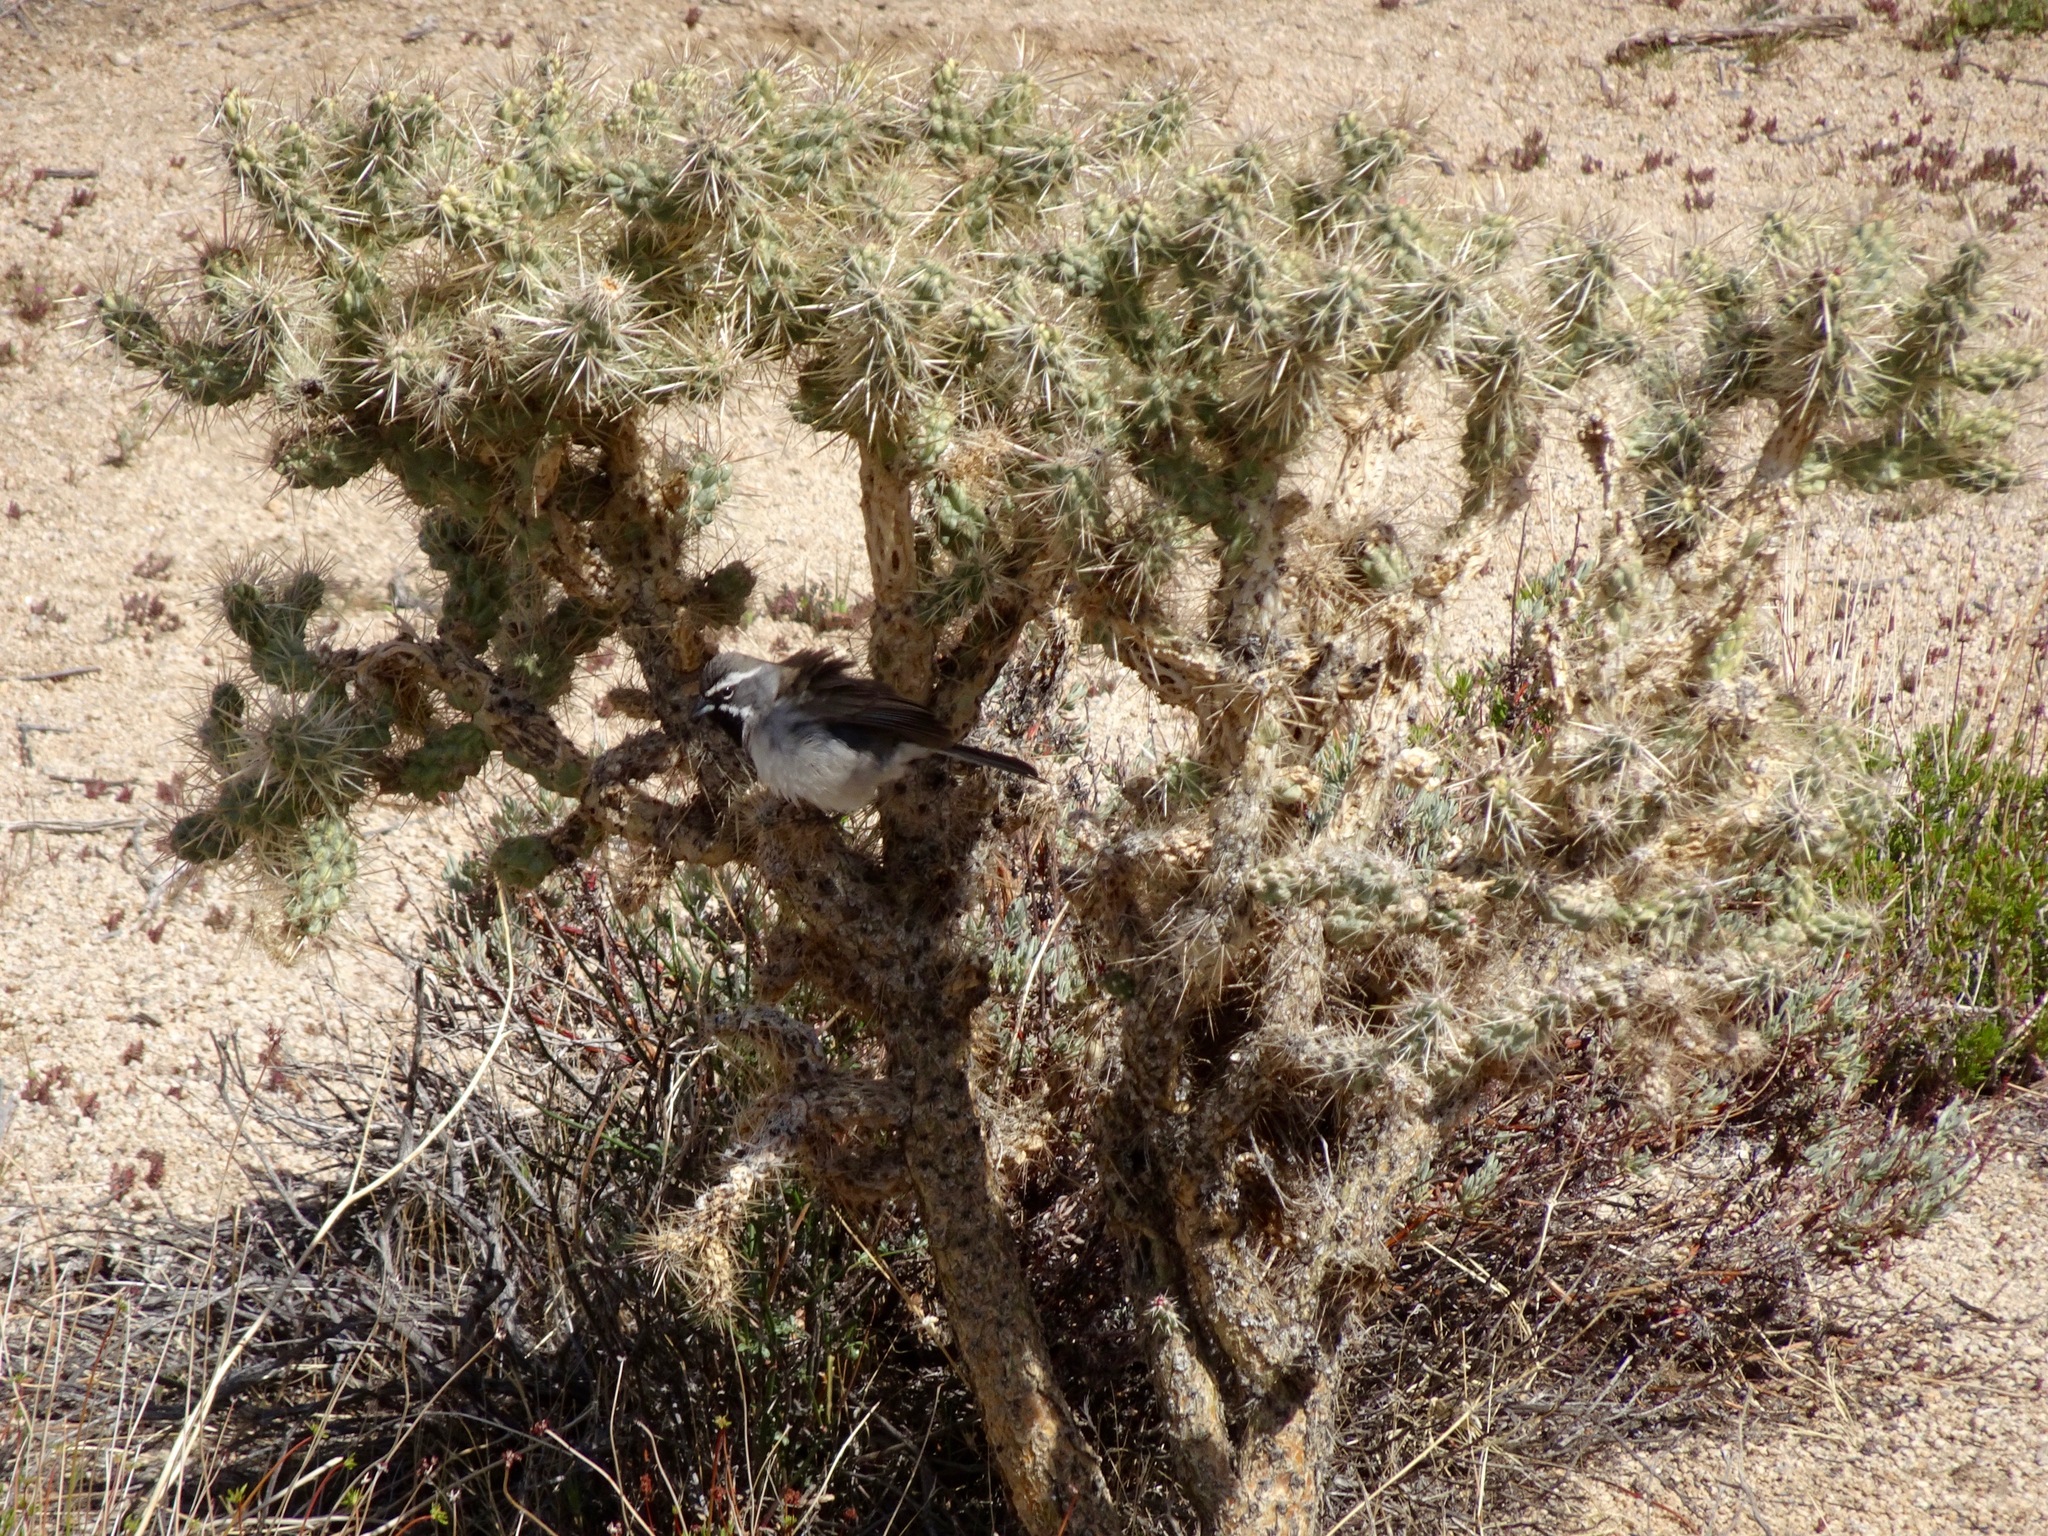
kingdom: Animalia
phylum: Chordata
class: Aves
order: Passeriformes
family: Passerellidae
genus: Amphispiza
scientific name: Amphispiza bilineata
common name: Black-throated sparrow
